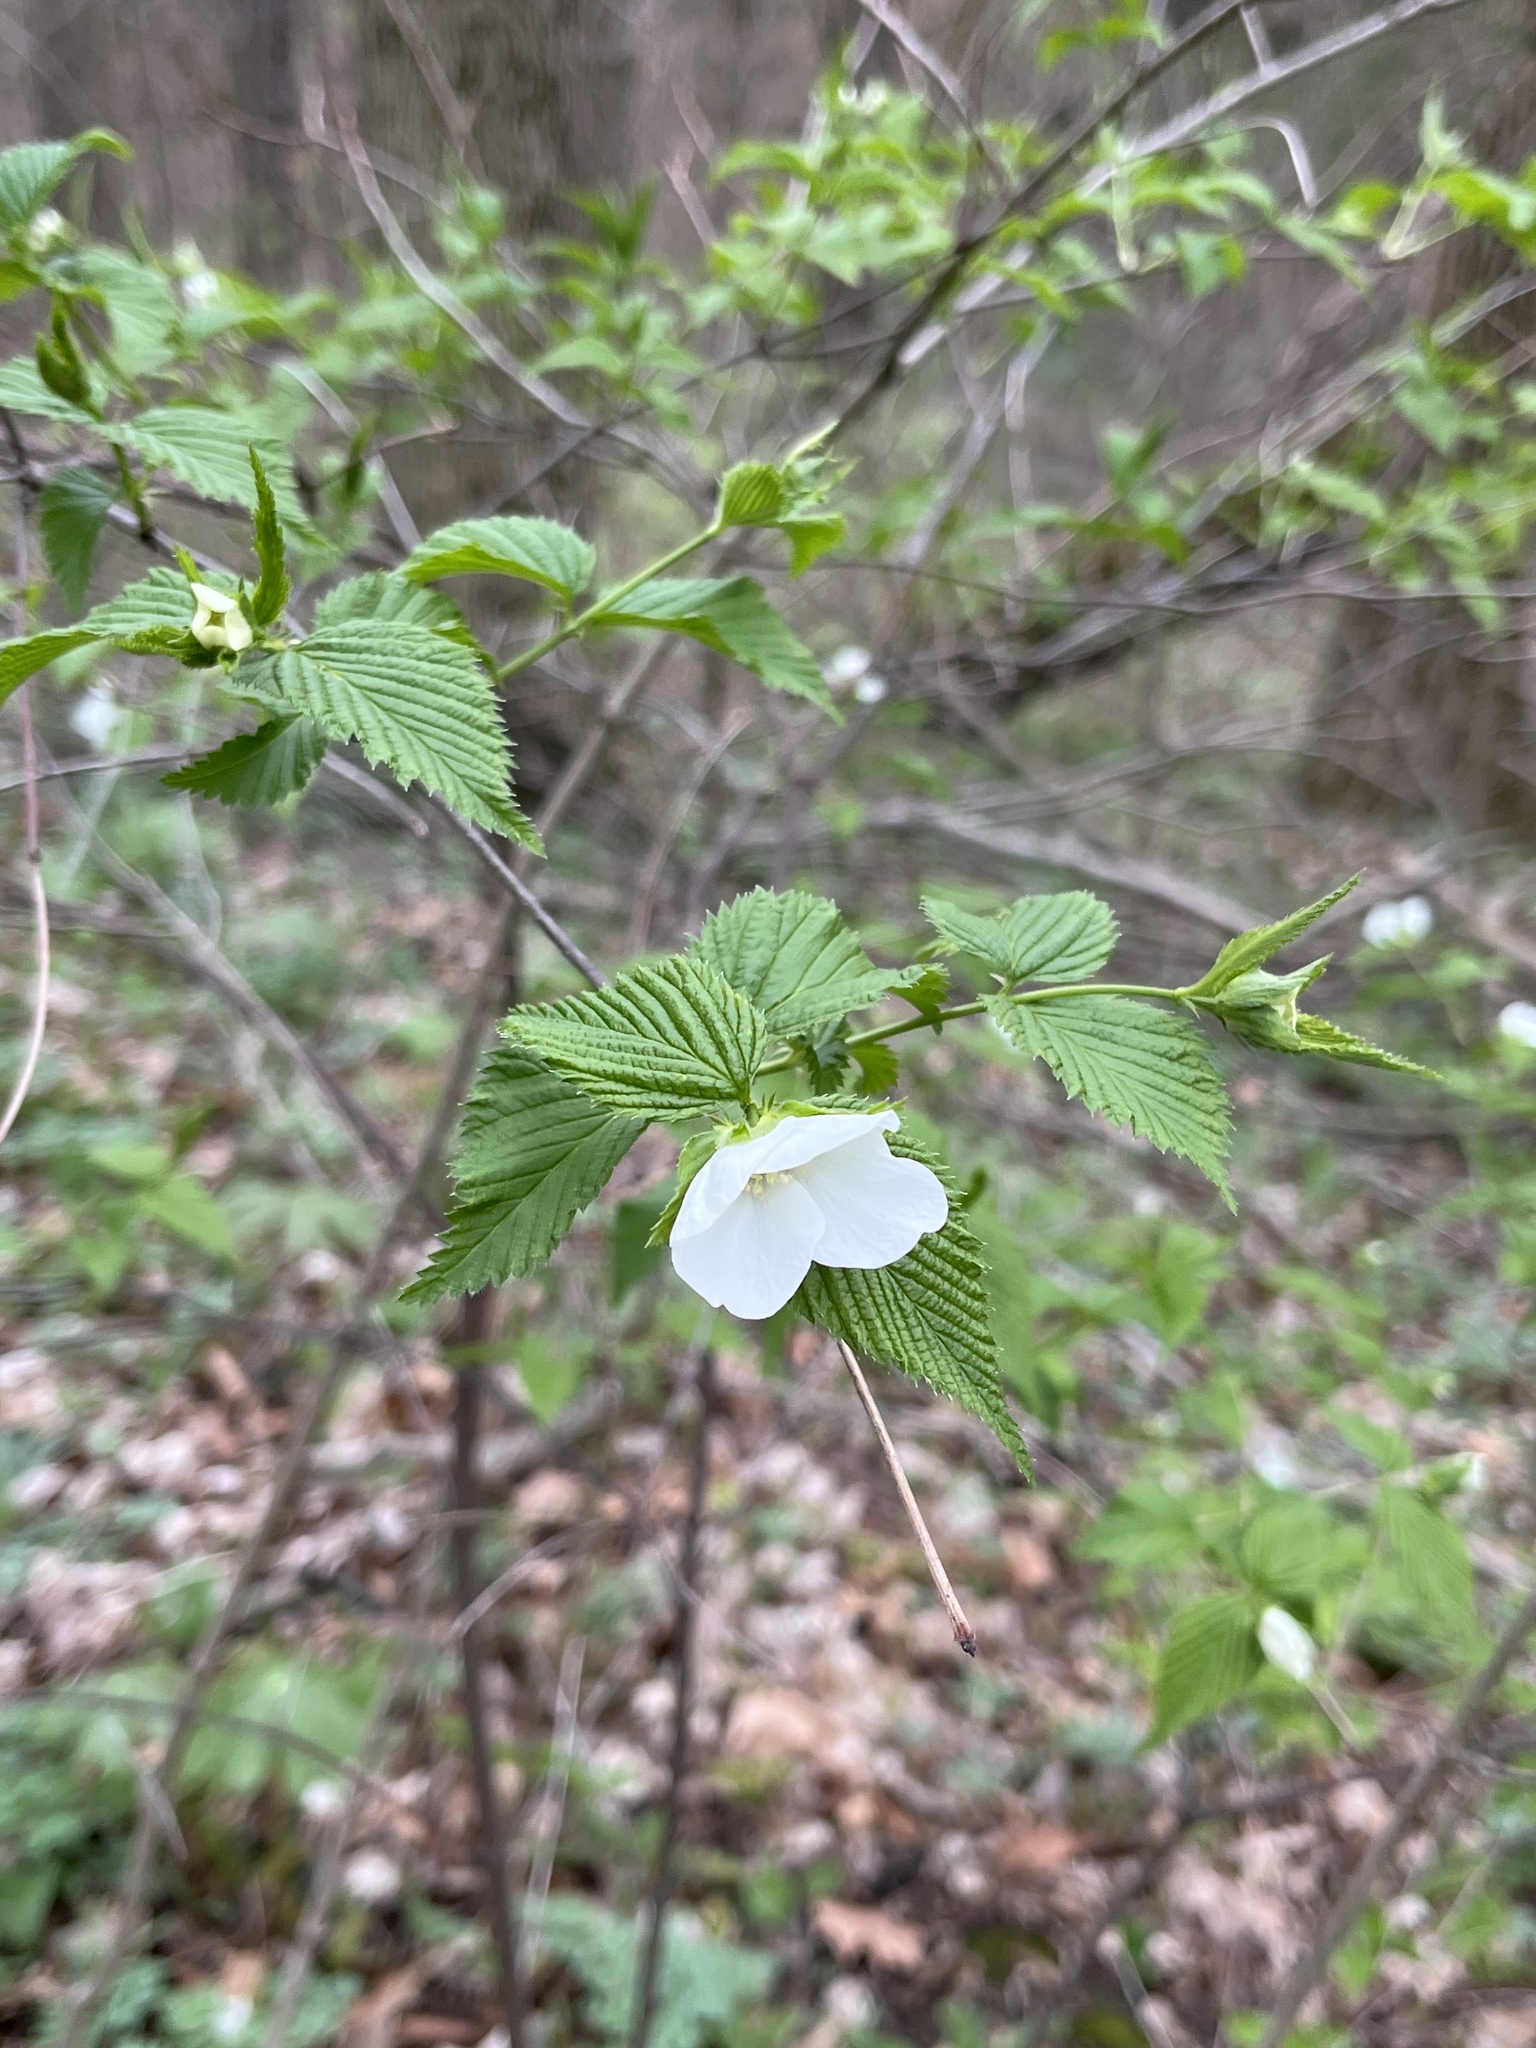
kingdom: Plantae
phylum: Tracheophyta
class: Magnoliopsida
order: Rosales
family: Rosaceae
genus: Rhodotypos
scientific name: Rhodotypos scandens
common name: Jetbead
